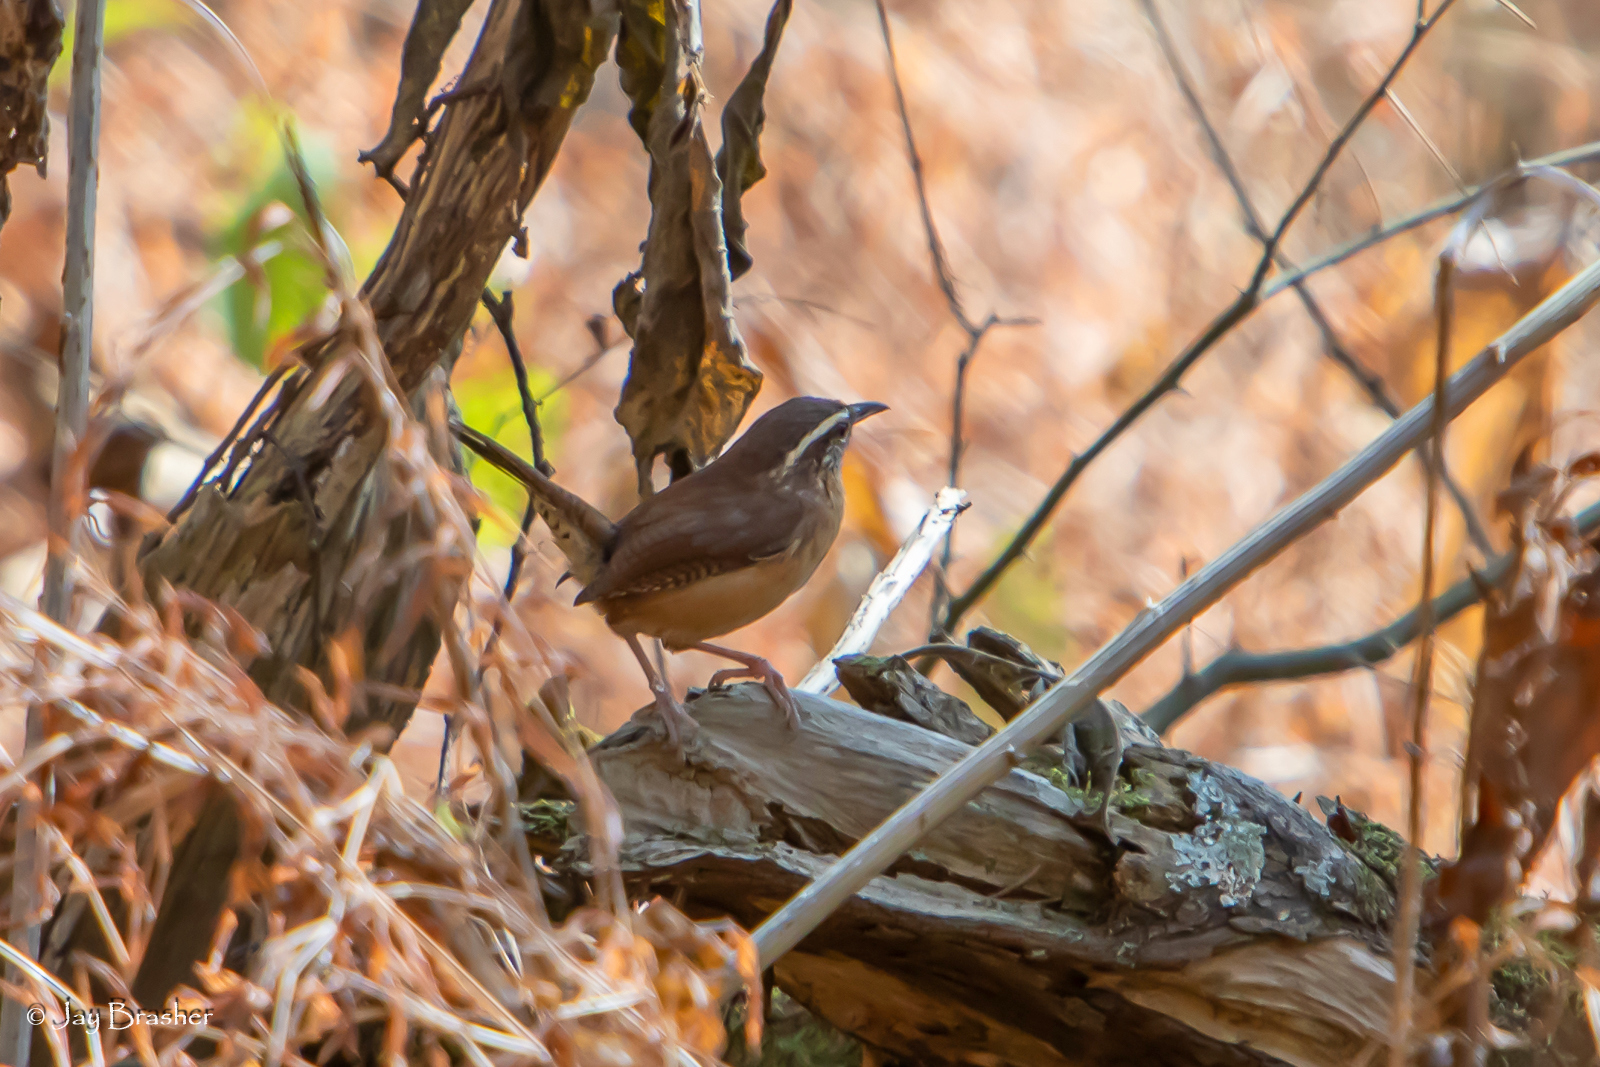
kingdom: Animalia
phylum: Chordata
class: Aves
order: Passeriformes
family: Troglodytidae
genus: Thryothorus
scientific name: Thryothorus ludovicianus
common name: Carolina wren
